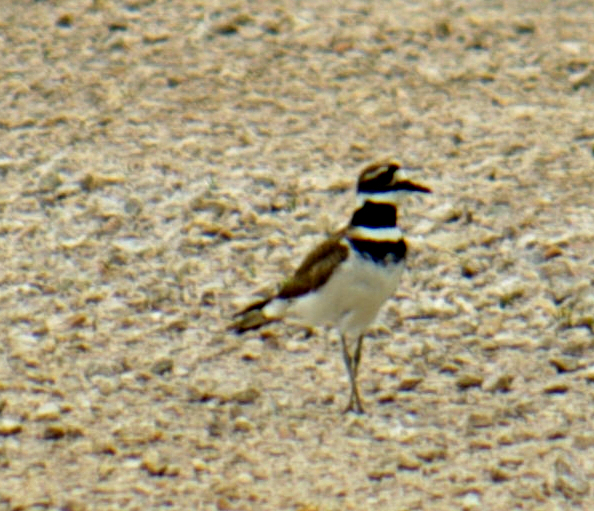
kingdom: Animalia
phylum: Chordata
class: Aves
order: Charadriiformes
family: Charadriidae
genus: Charadrius
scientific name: Charadrius vociferus
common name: Killdeer
